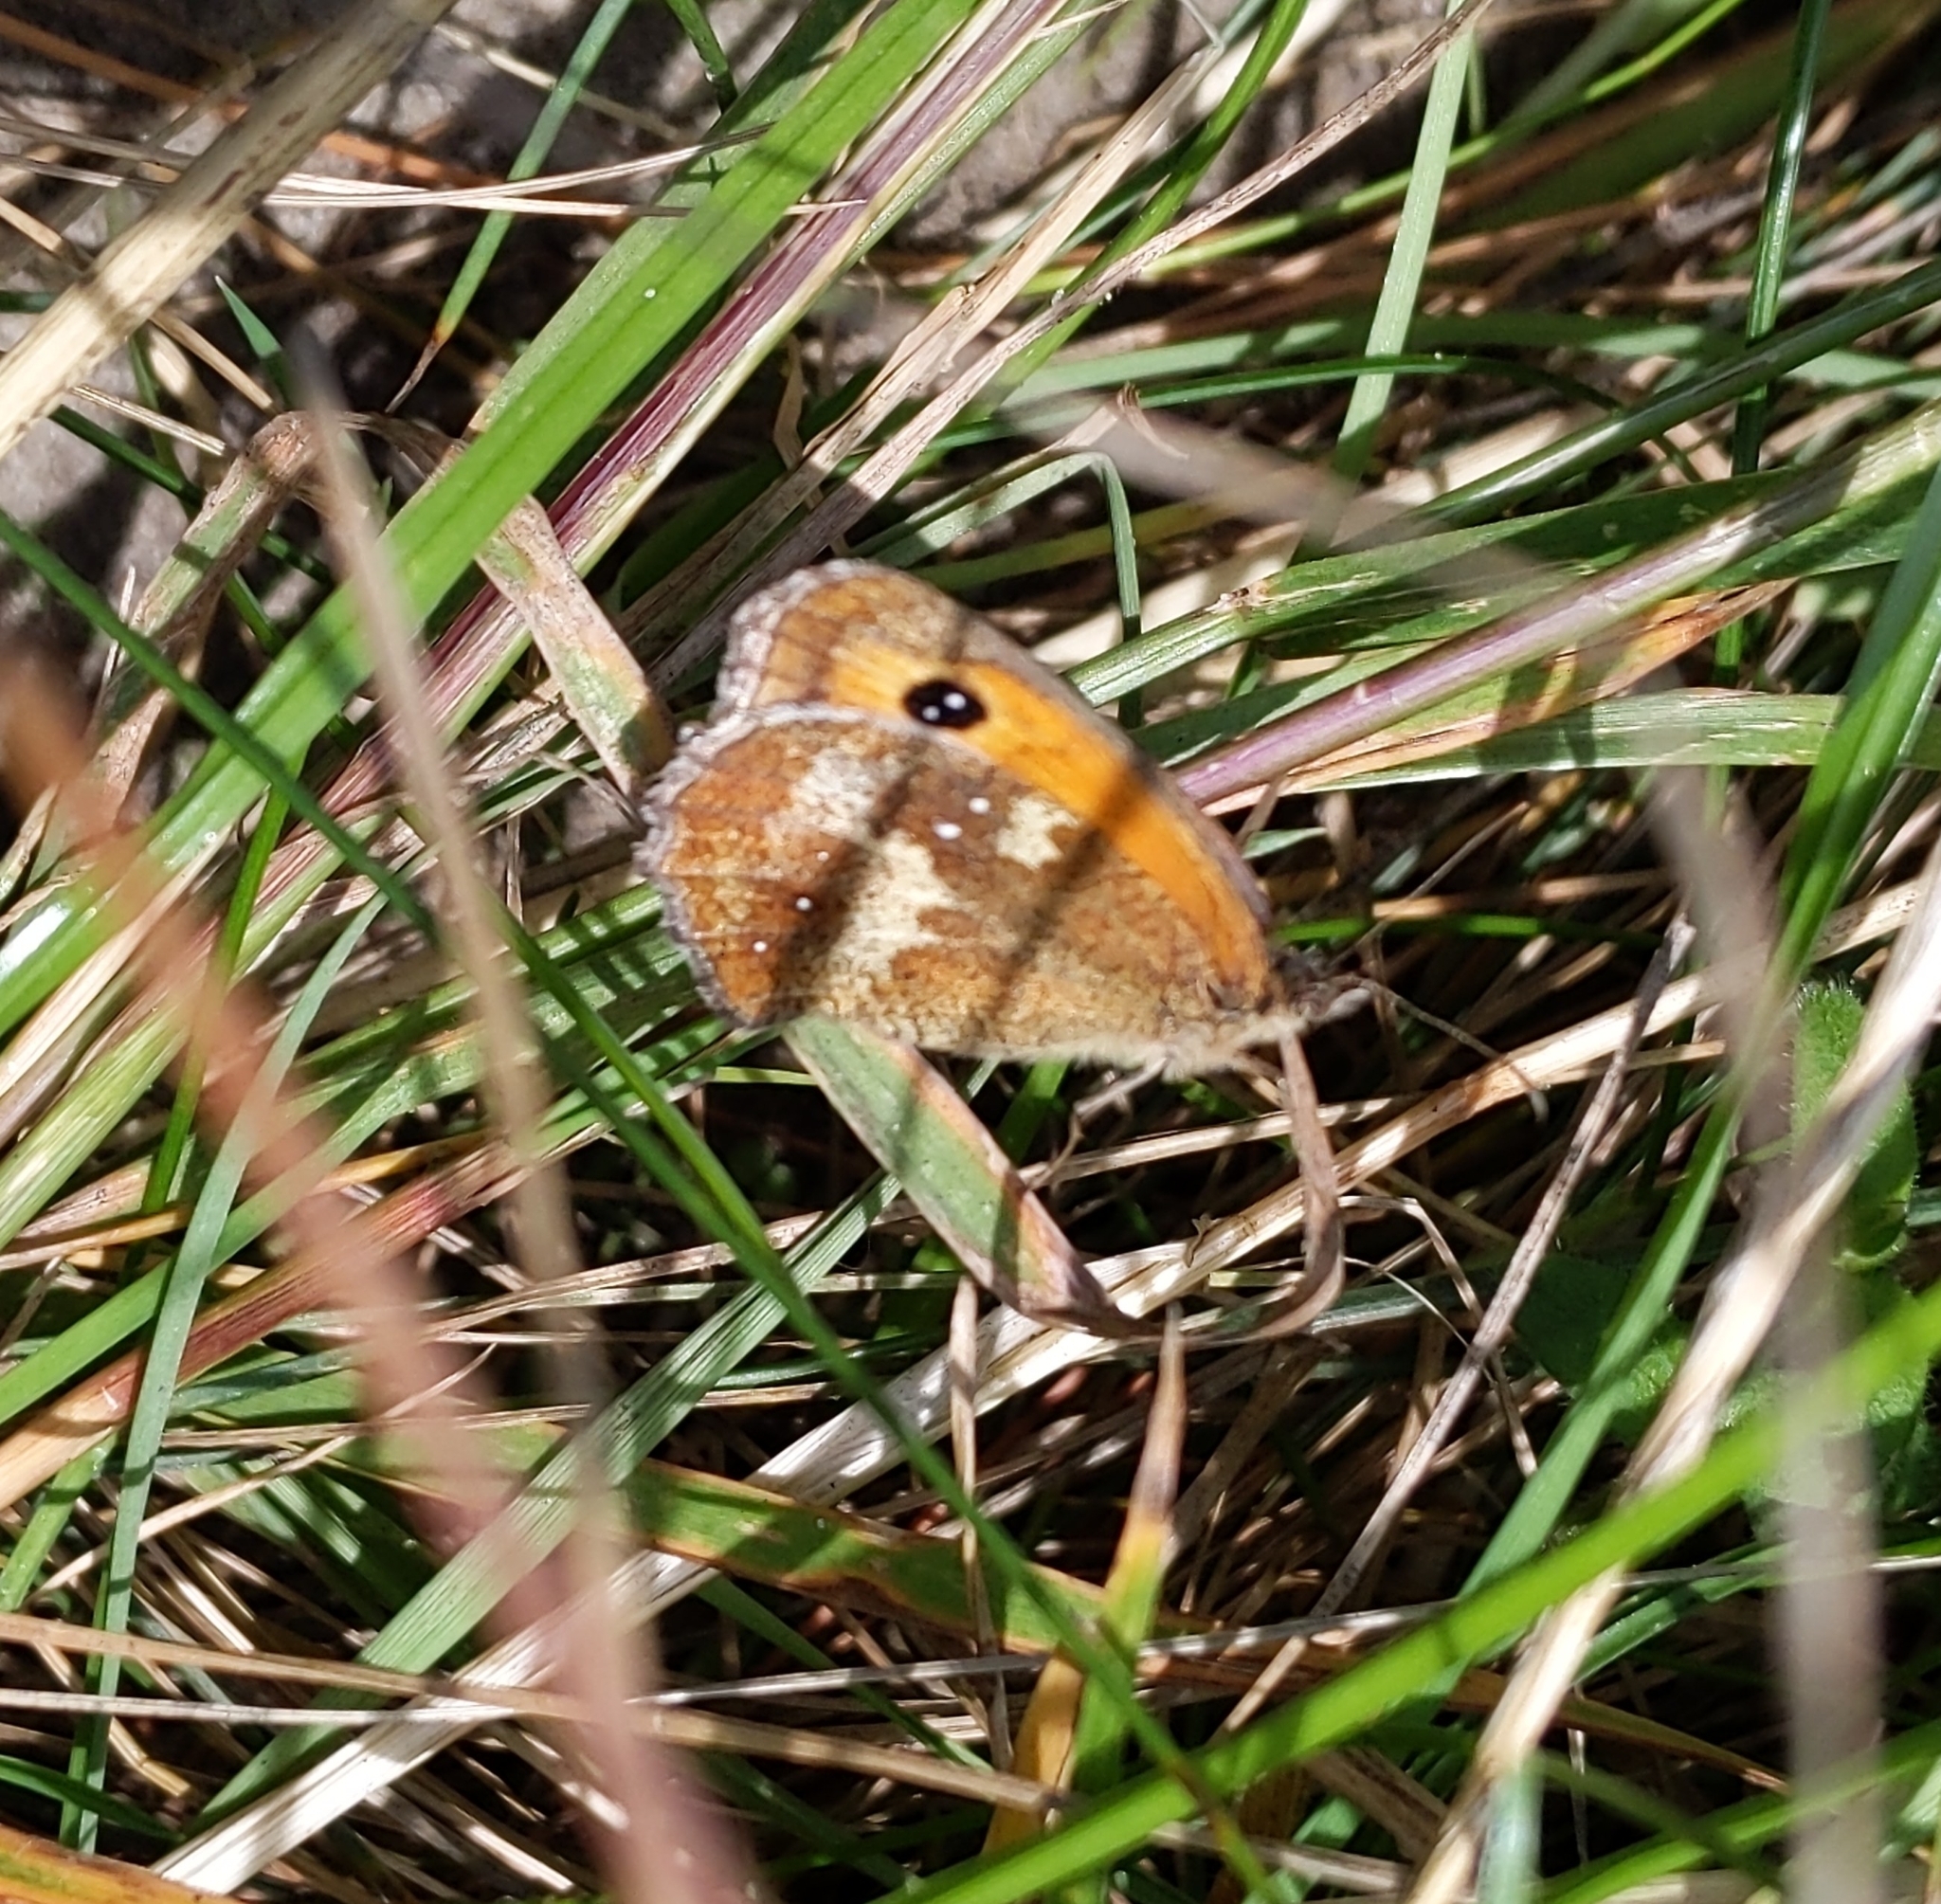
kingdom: Animalia
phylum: Arthropoda
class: Insecta
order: Lepidoptera
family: Nymphalidae
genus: Pyronia
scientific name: Pyronia tithonus
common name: Gatekeeper
